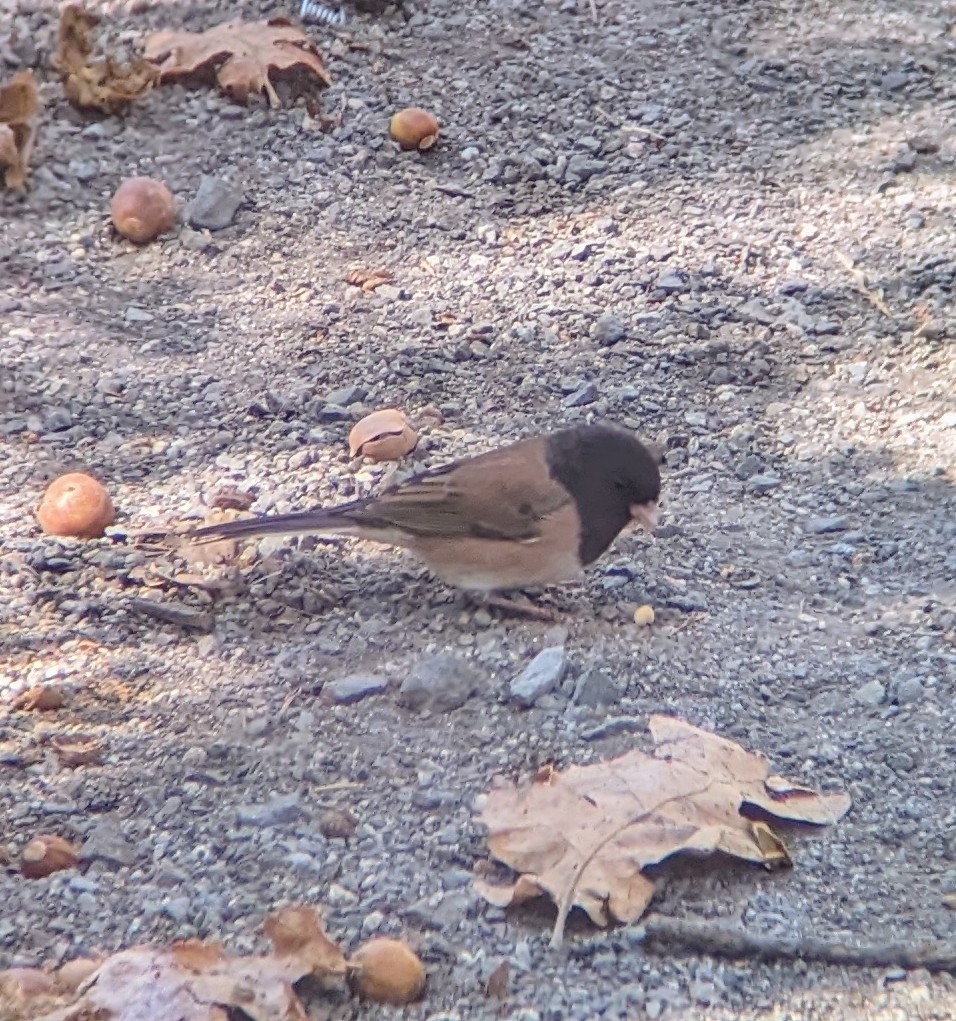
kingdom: Animalia
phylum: Chordata
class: Aves
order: Passeriformes
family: Passerellidae
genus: Junco
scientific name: Junco hyemalis
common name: Dark-eyed junco
